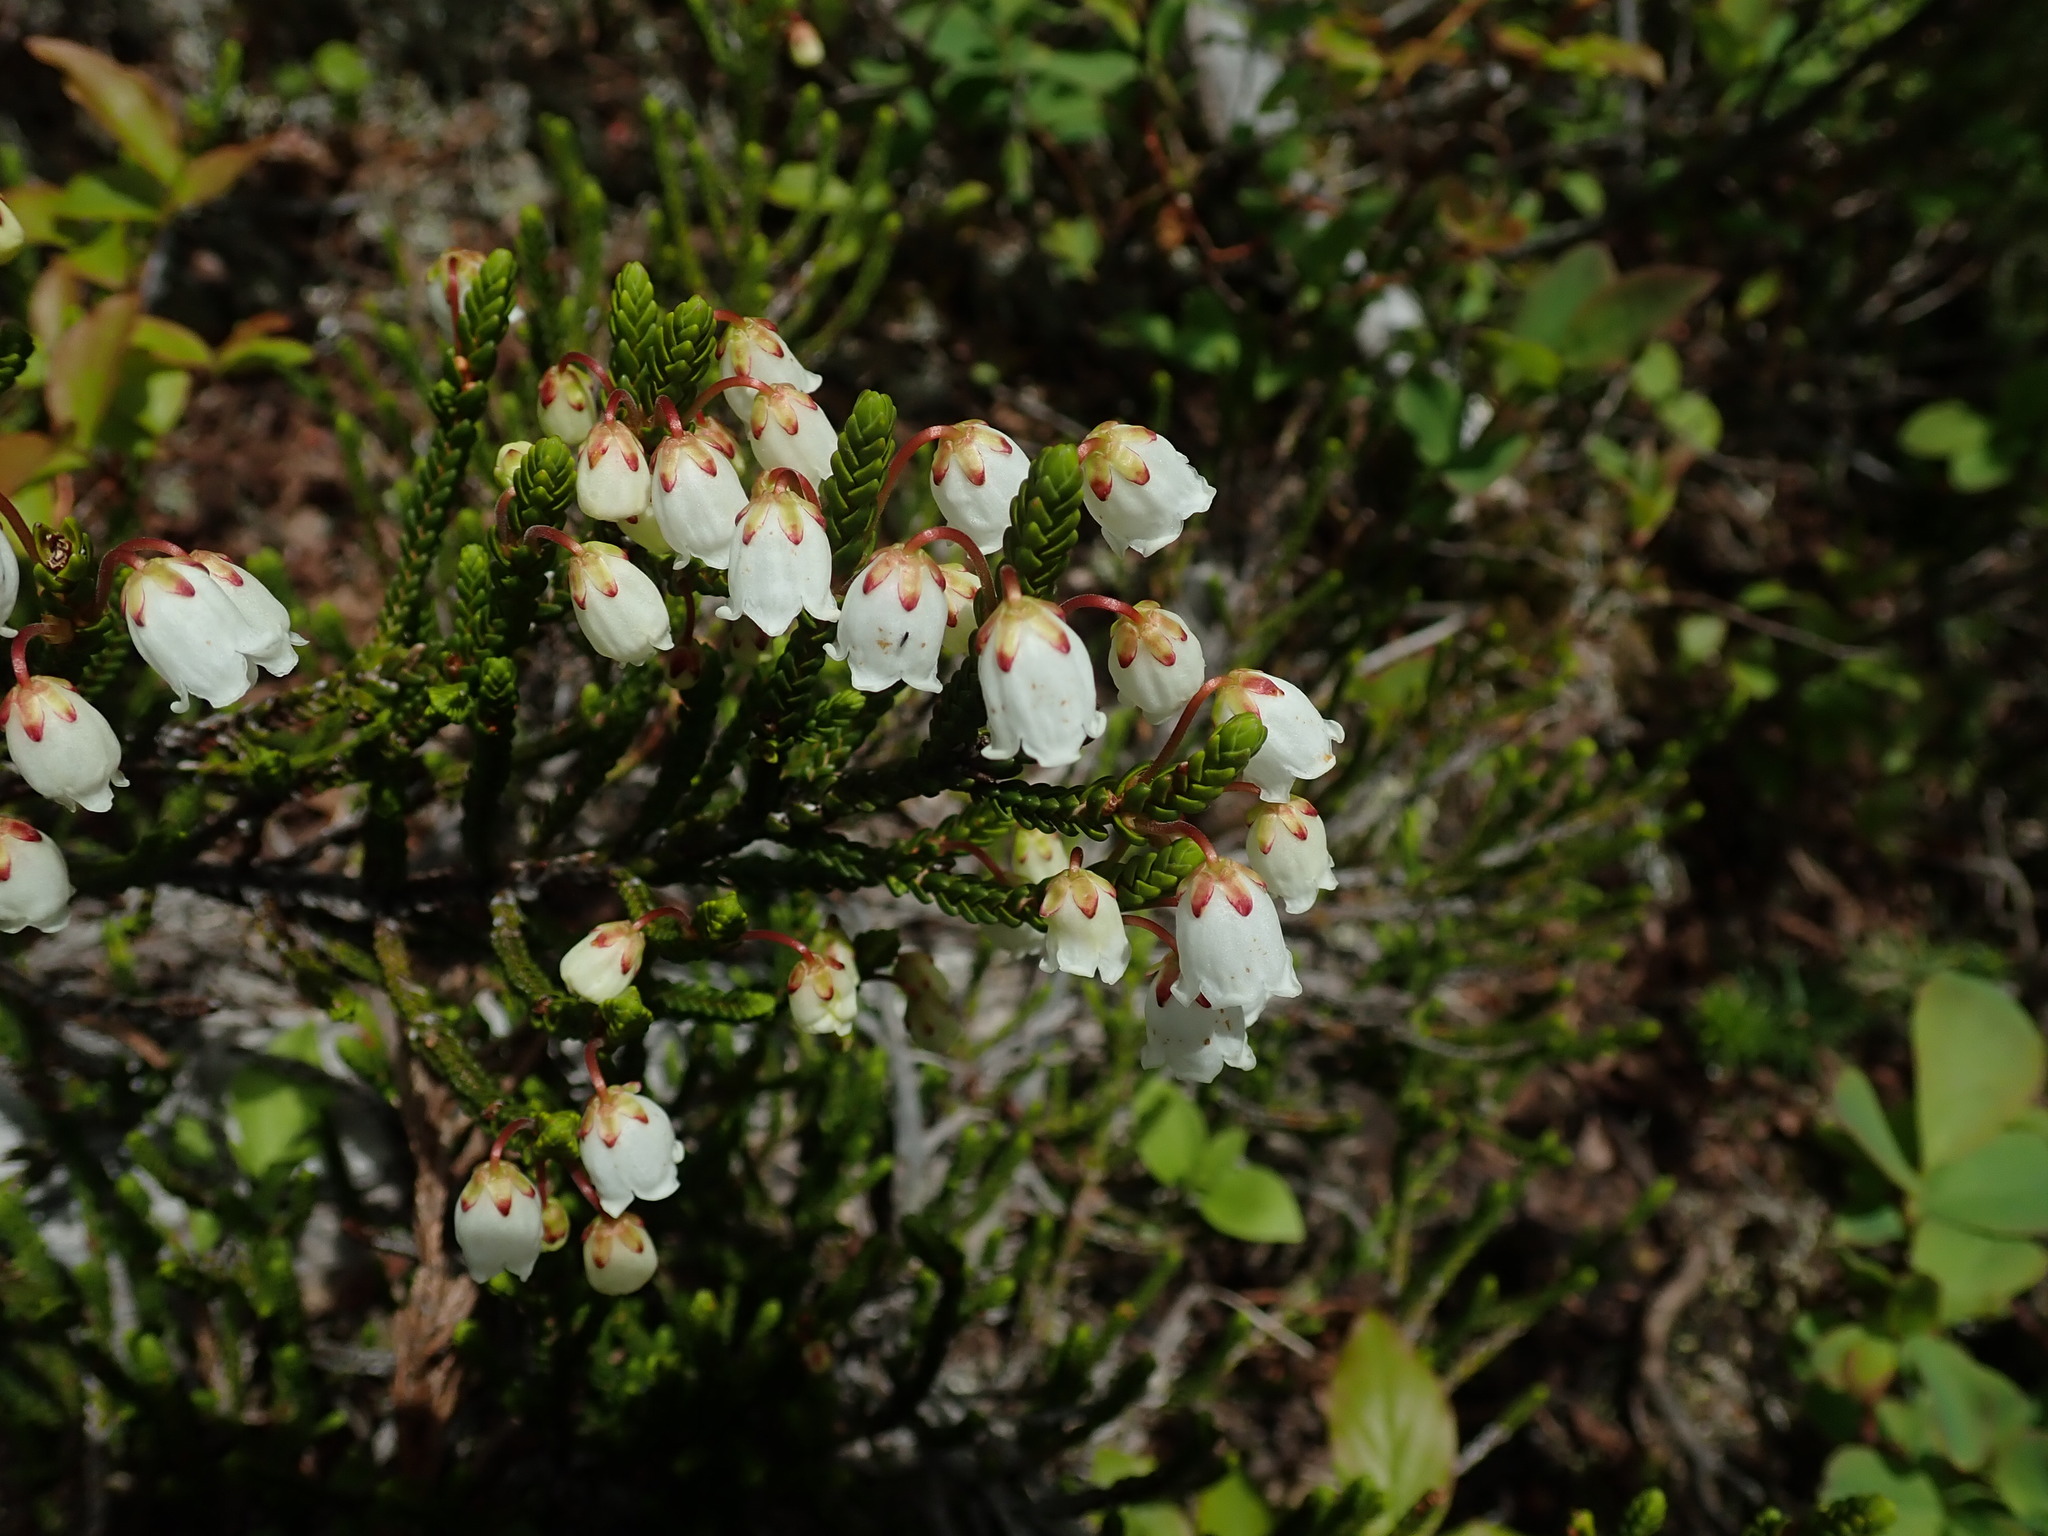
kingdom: Plantae
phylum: Tracheophyta
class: Magnoliopsida
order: Ericales
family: Ericaceae
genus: Cassiope
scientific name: Cassiope mertensiana
